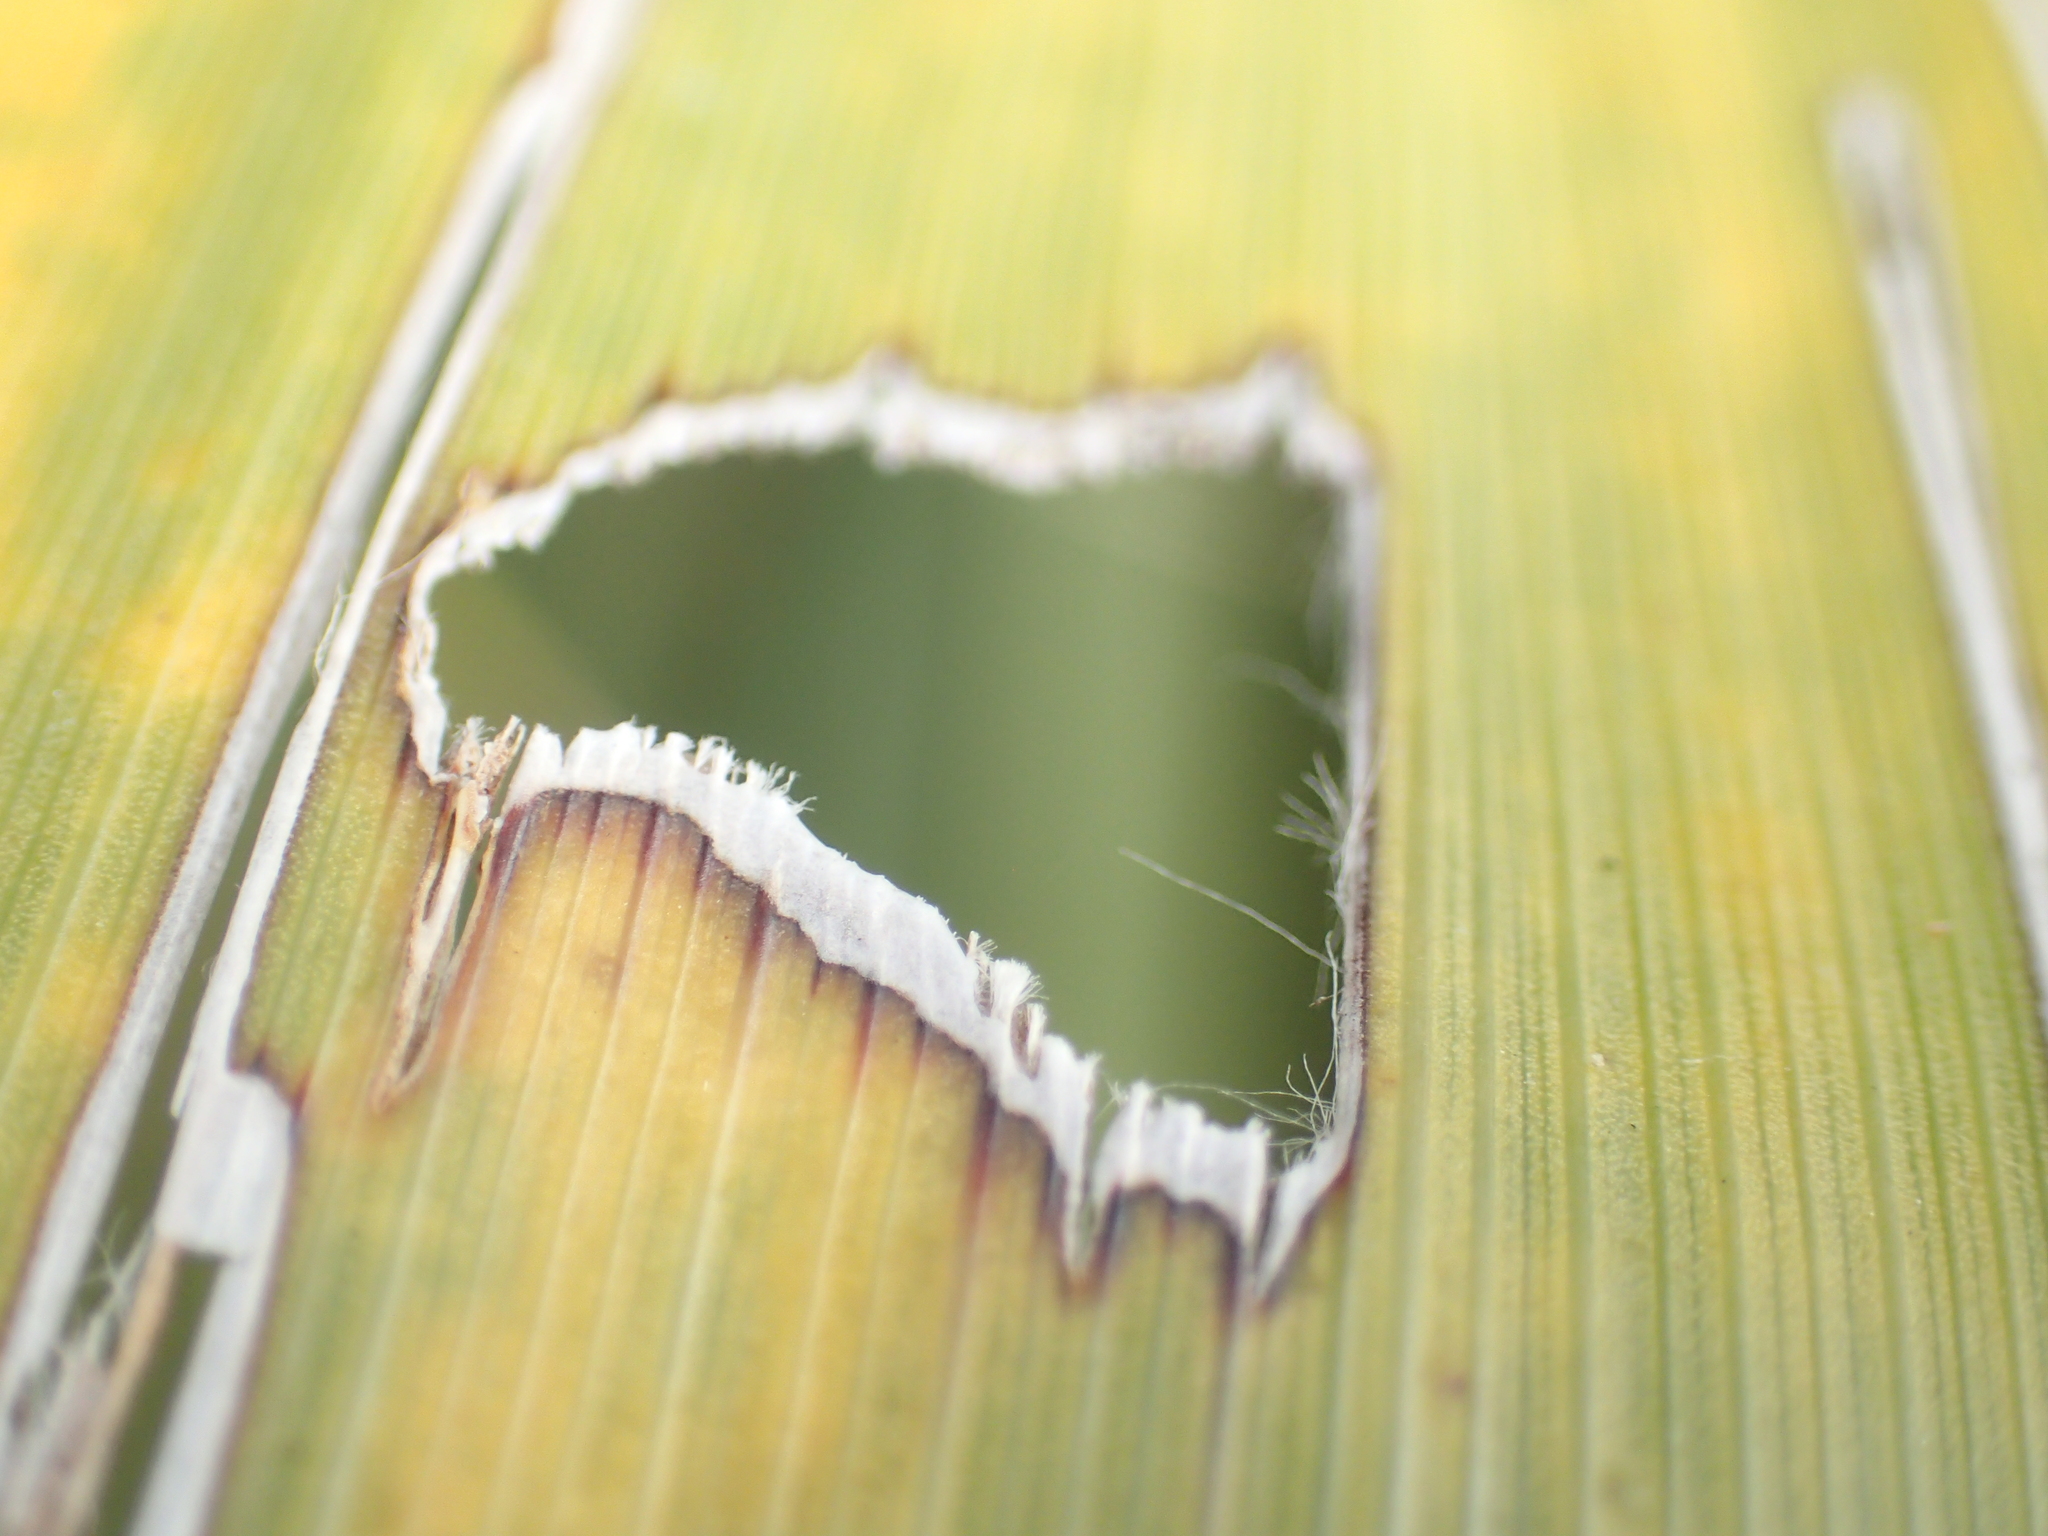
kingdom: Animalia
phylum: Arthropoda
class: Insecta
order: Lepidoptera
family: Geometridae
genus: Epiphryne
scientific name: Epiphryne verriculata
